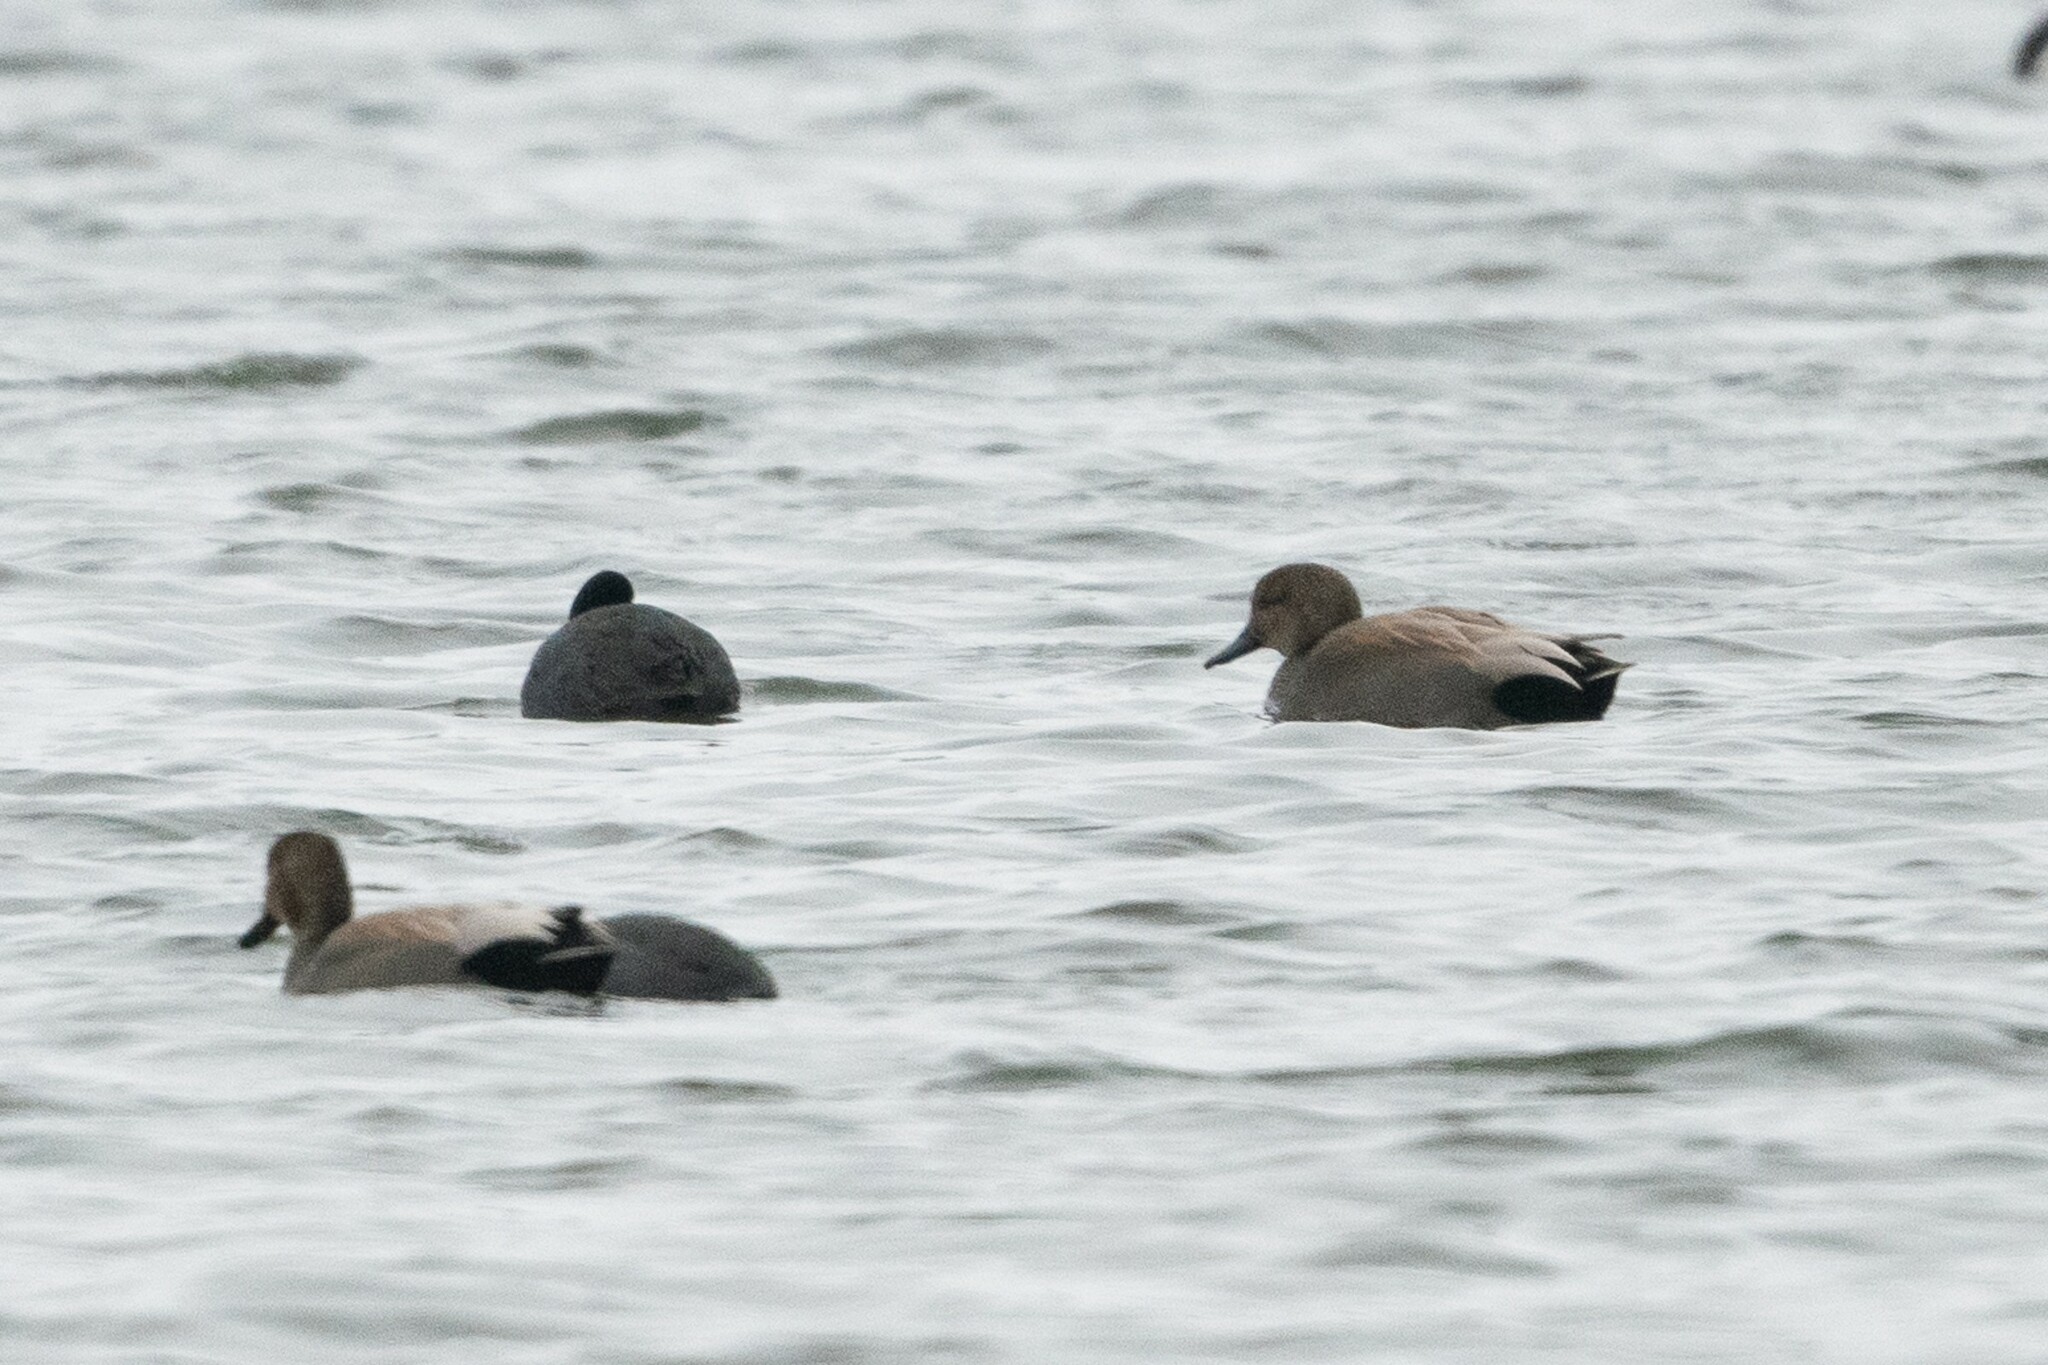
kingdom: Animalia
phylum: Chordata
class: Aves
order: Anseriformes
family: Anatidae
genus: Mareca
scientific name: Mareca strepera
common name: Gadwall
